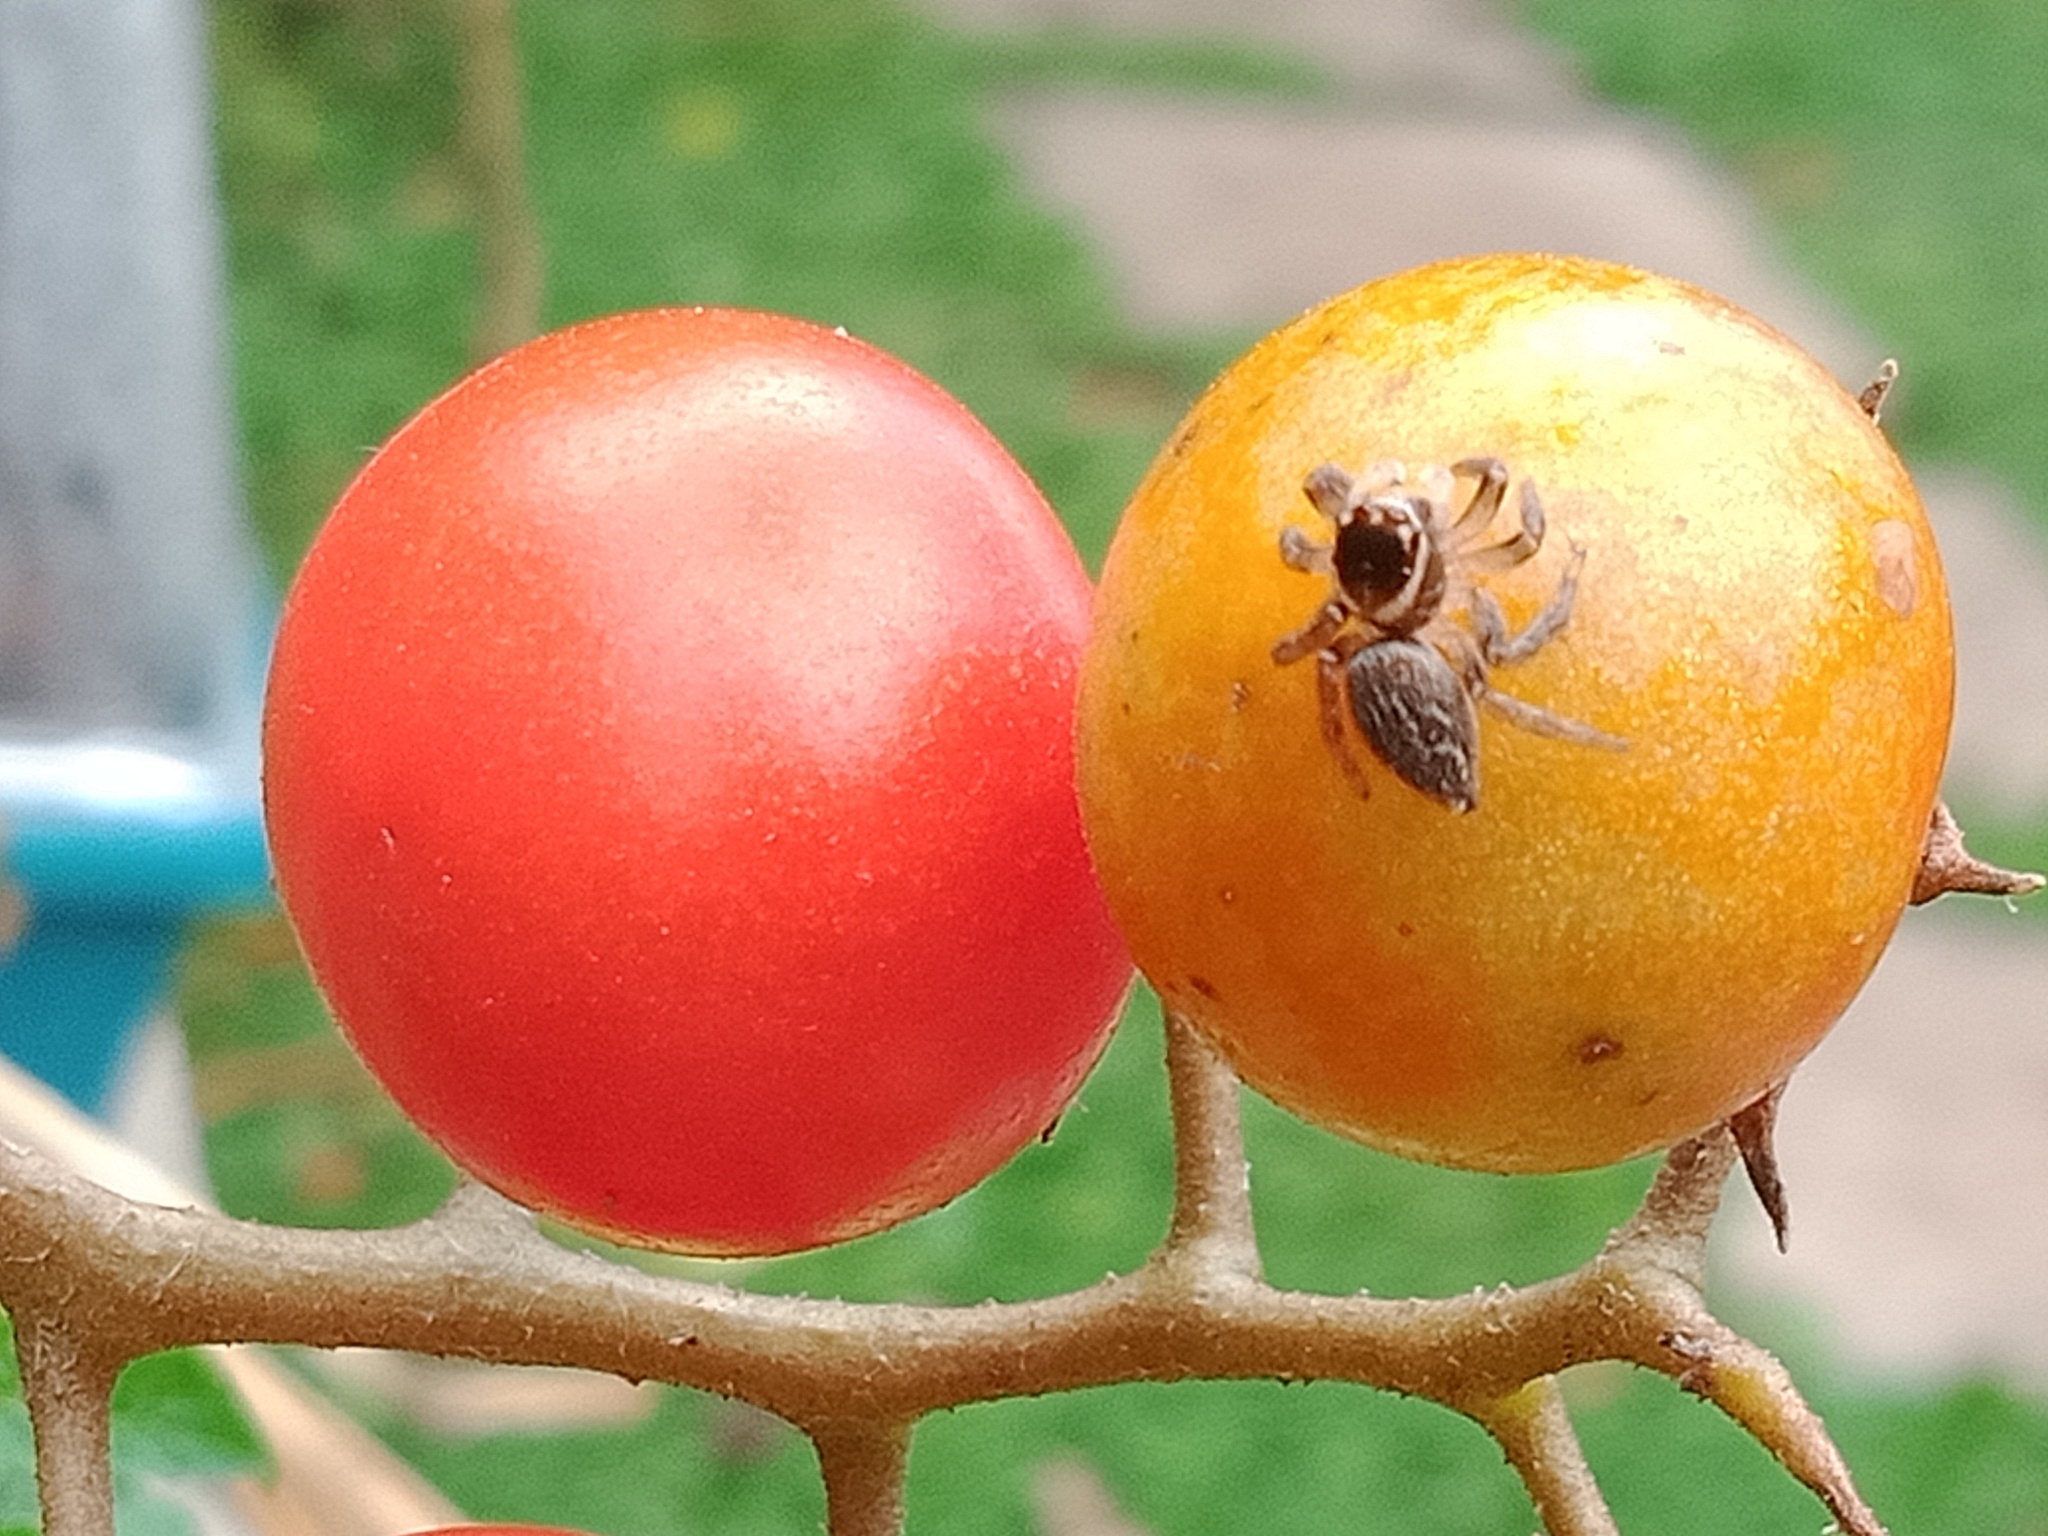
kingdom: Animalia
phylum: Arthropoda
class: Arachnida
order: Araneae
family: Salticidae
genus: Maratus
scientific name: Maratus griseus
